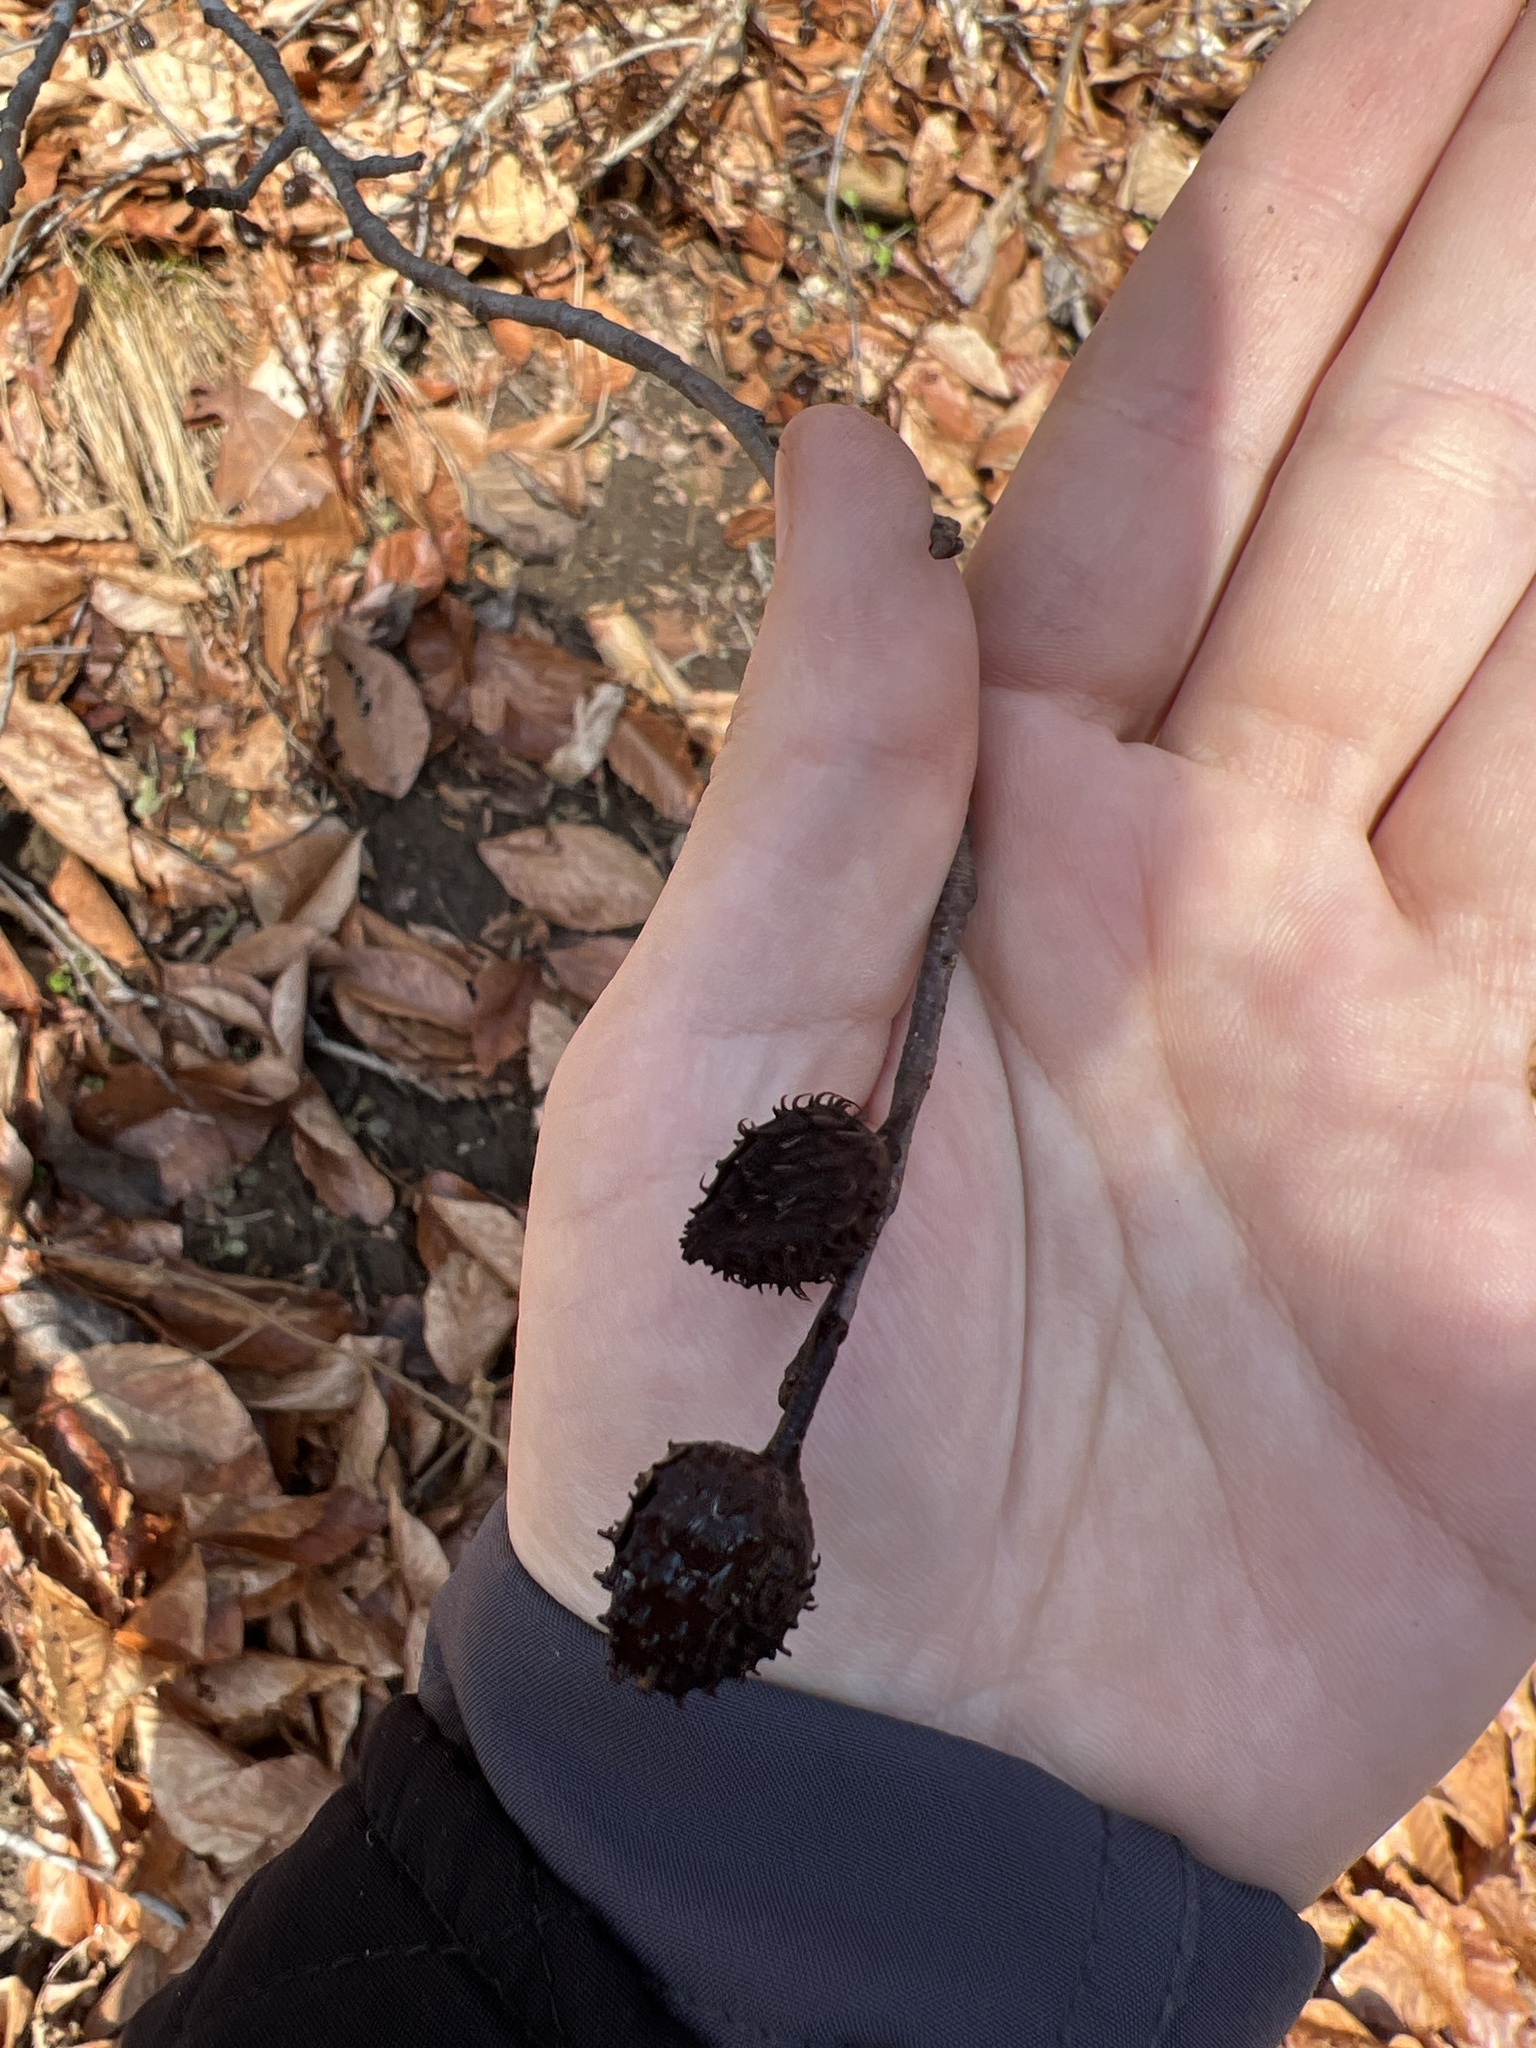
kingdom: Plantae
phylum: Tracheophyta
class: Magnoliopsida
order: Fagales
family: Fagaceae
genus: Fagus
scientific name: Fagus grandifolia
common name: American beech
